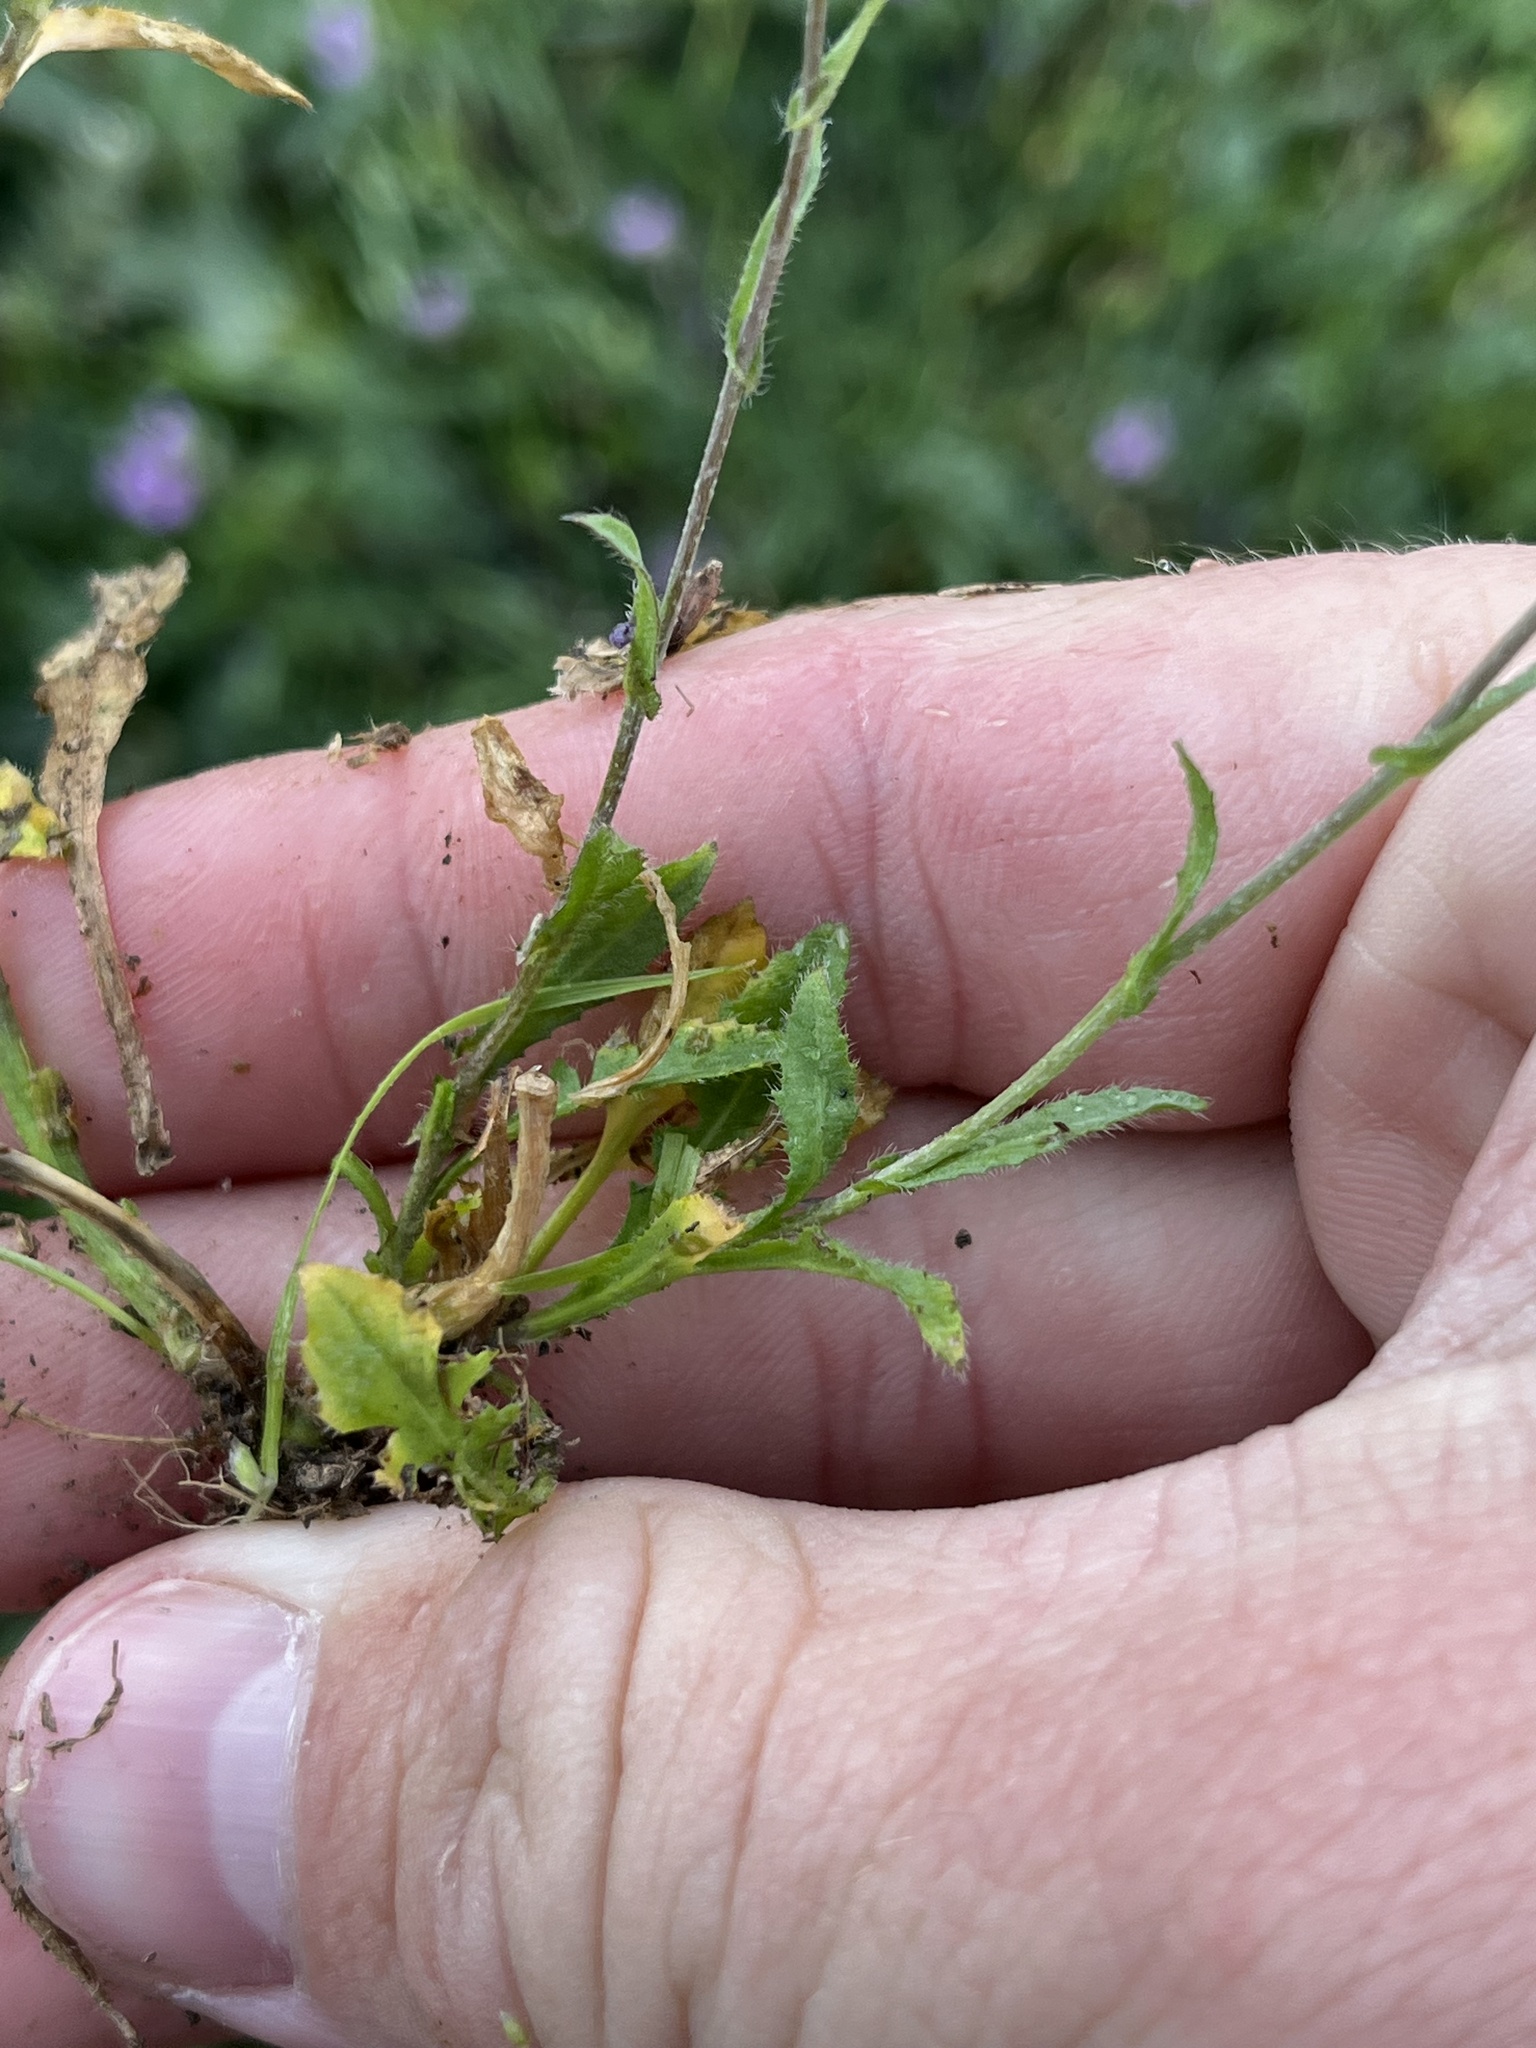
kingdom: Plantae
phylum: Tracheophyta
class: Magnoliopsida
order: Brassicales
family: Brassicaceae
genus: Capsella
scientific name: Capsella bursa-pastoris
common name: Shepherd's purse
